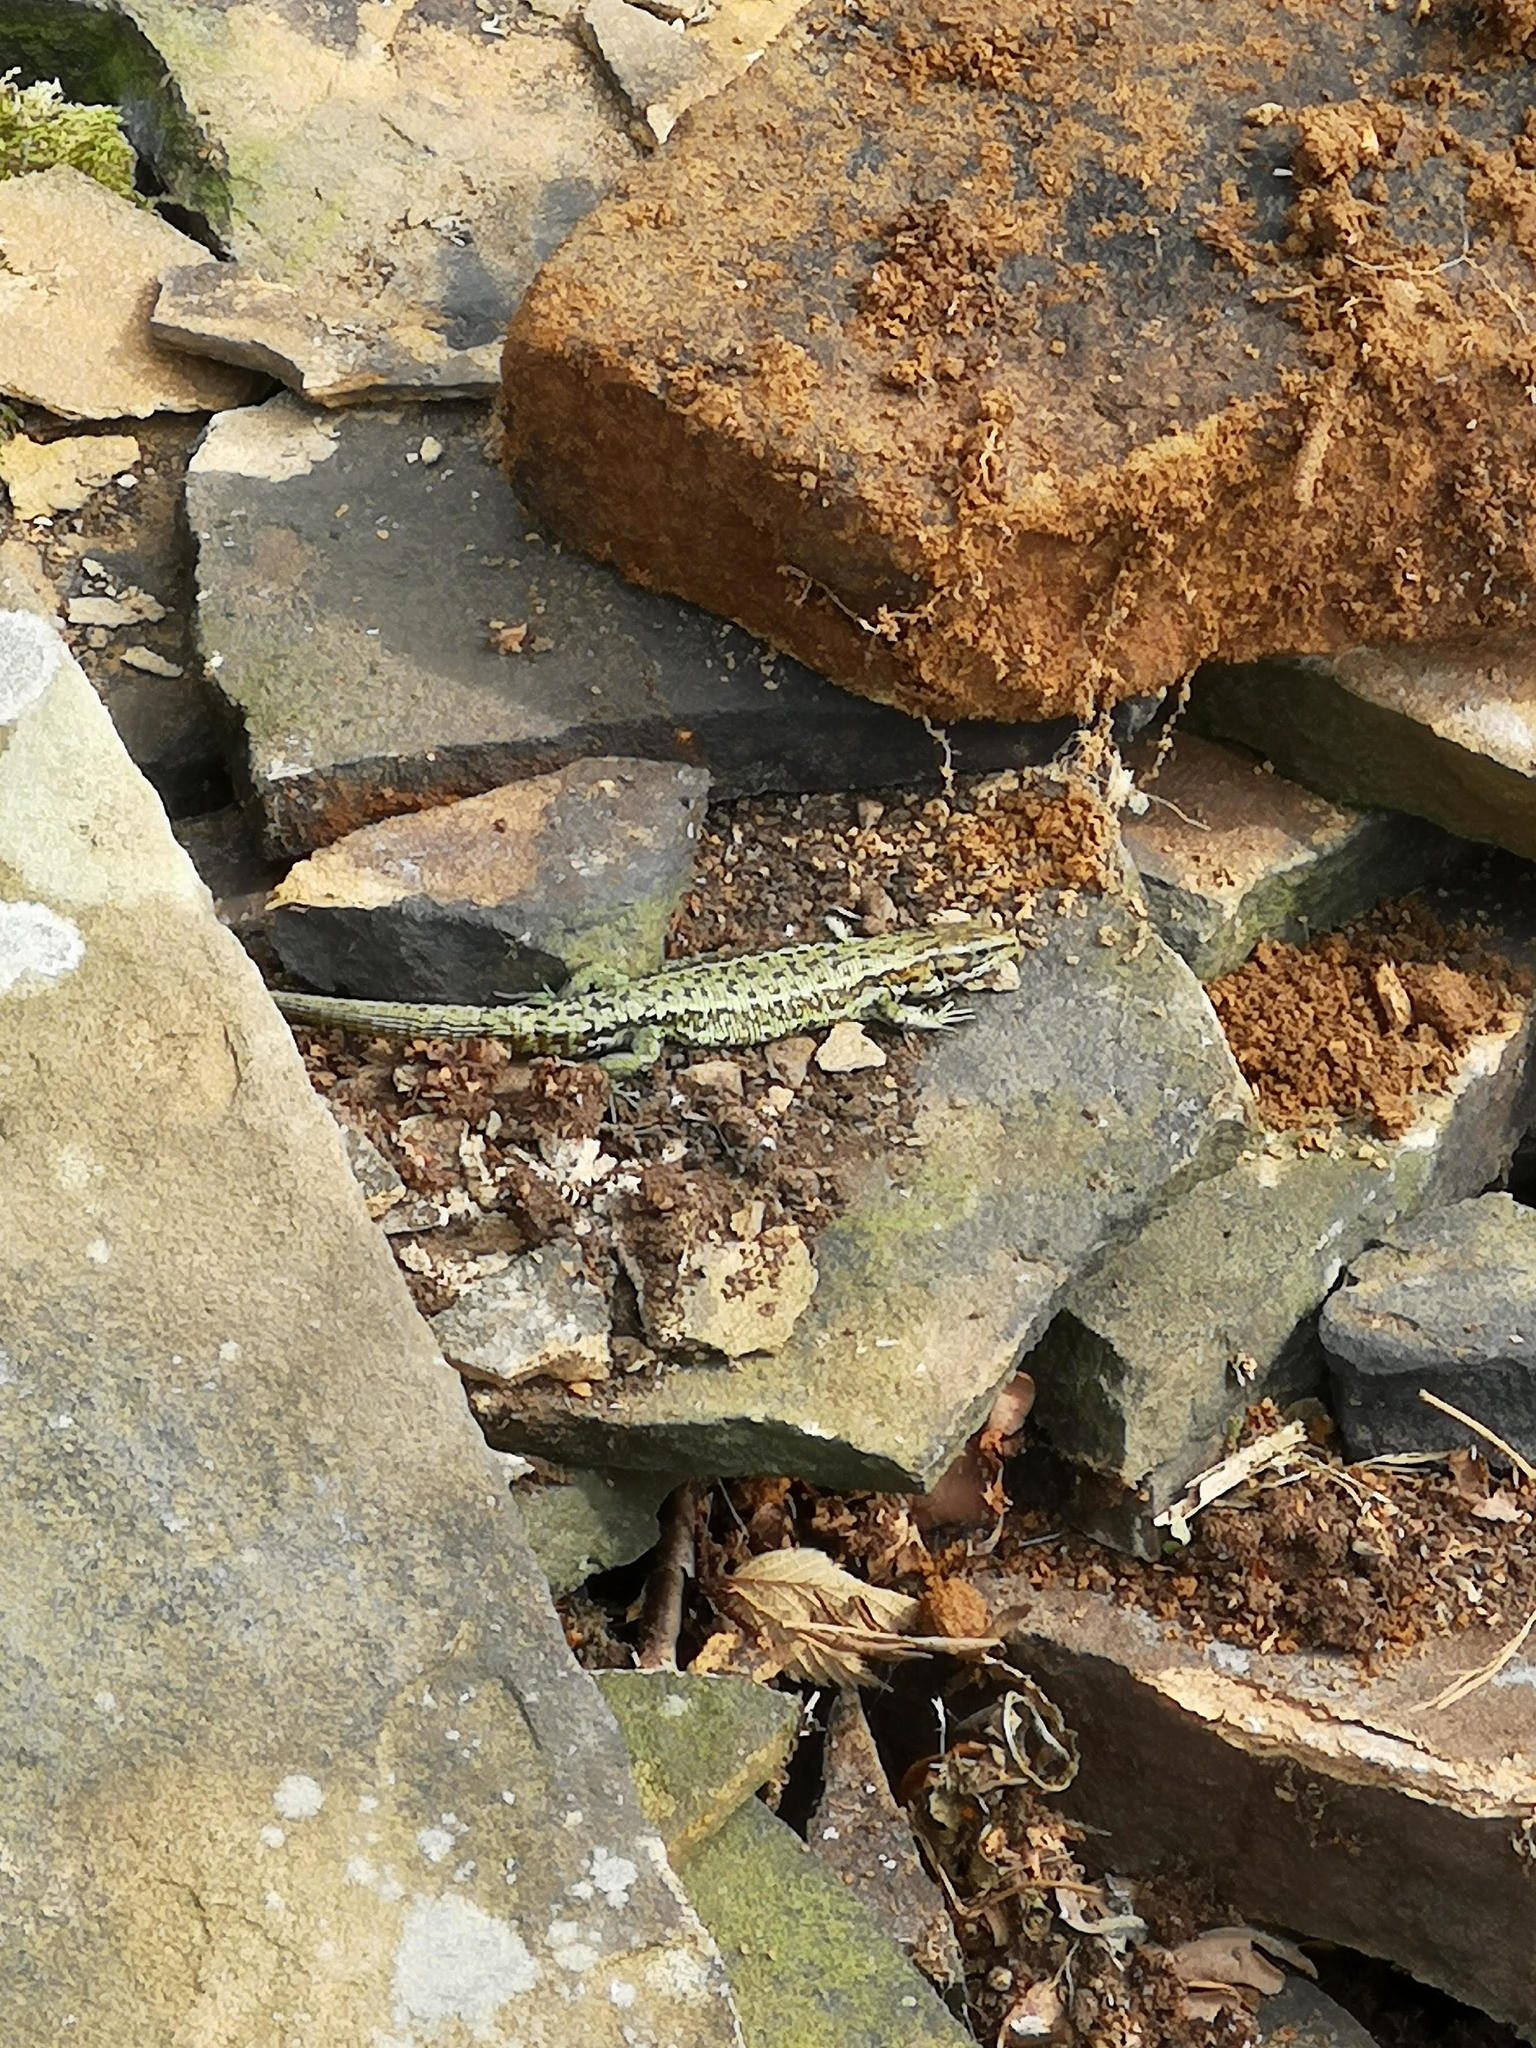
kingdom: Animalia
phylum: Chordata
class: Squamata
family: Lacertidae
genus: Zootoca
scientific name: Zootoca vivipara
